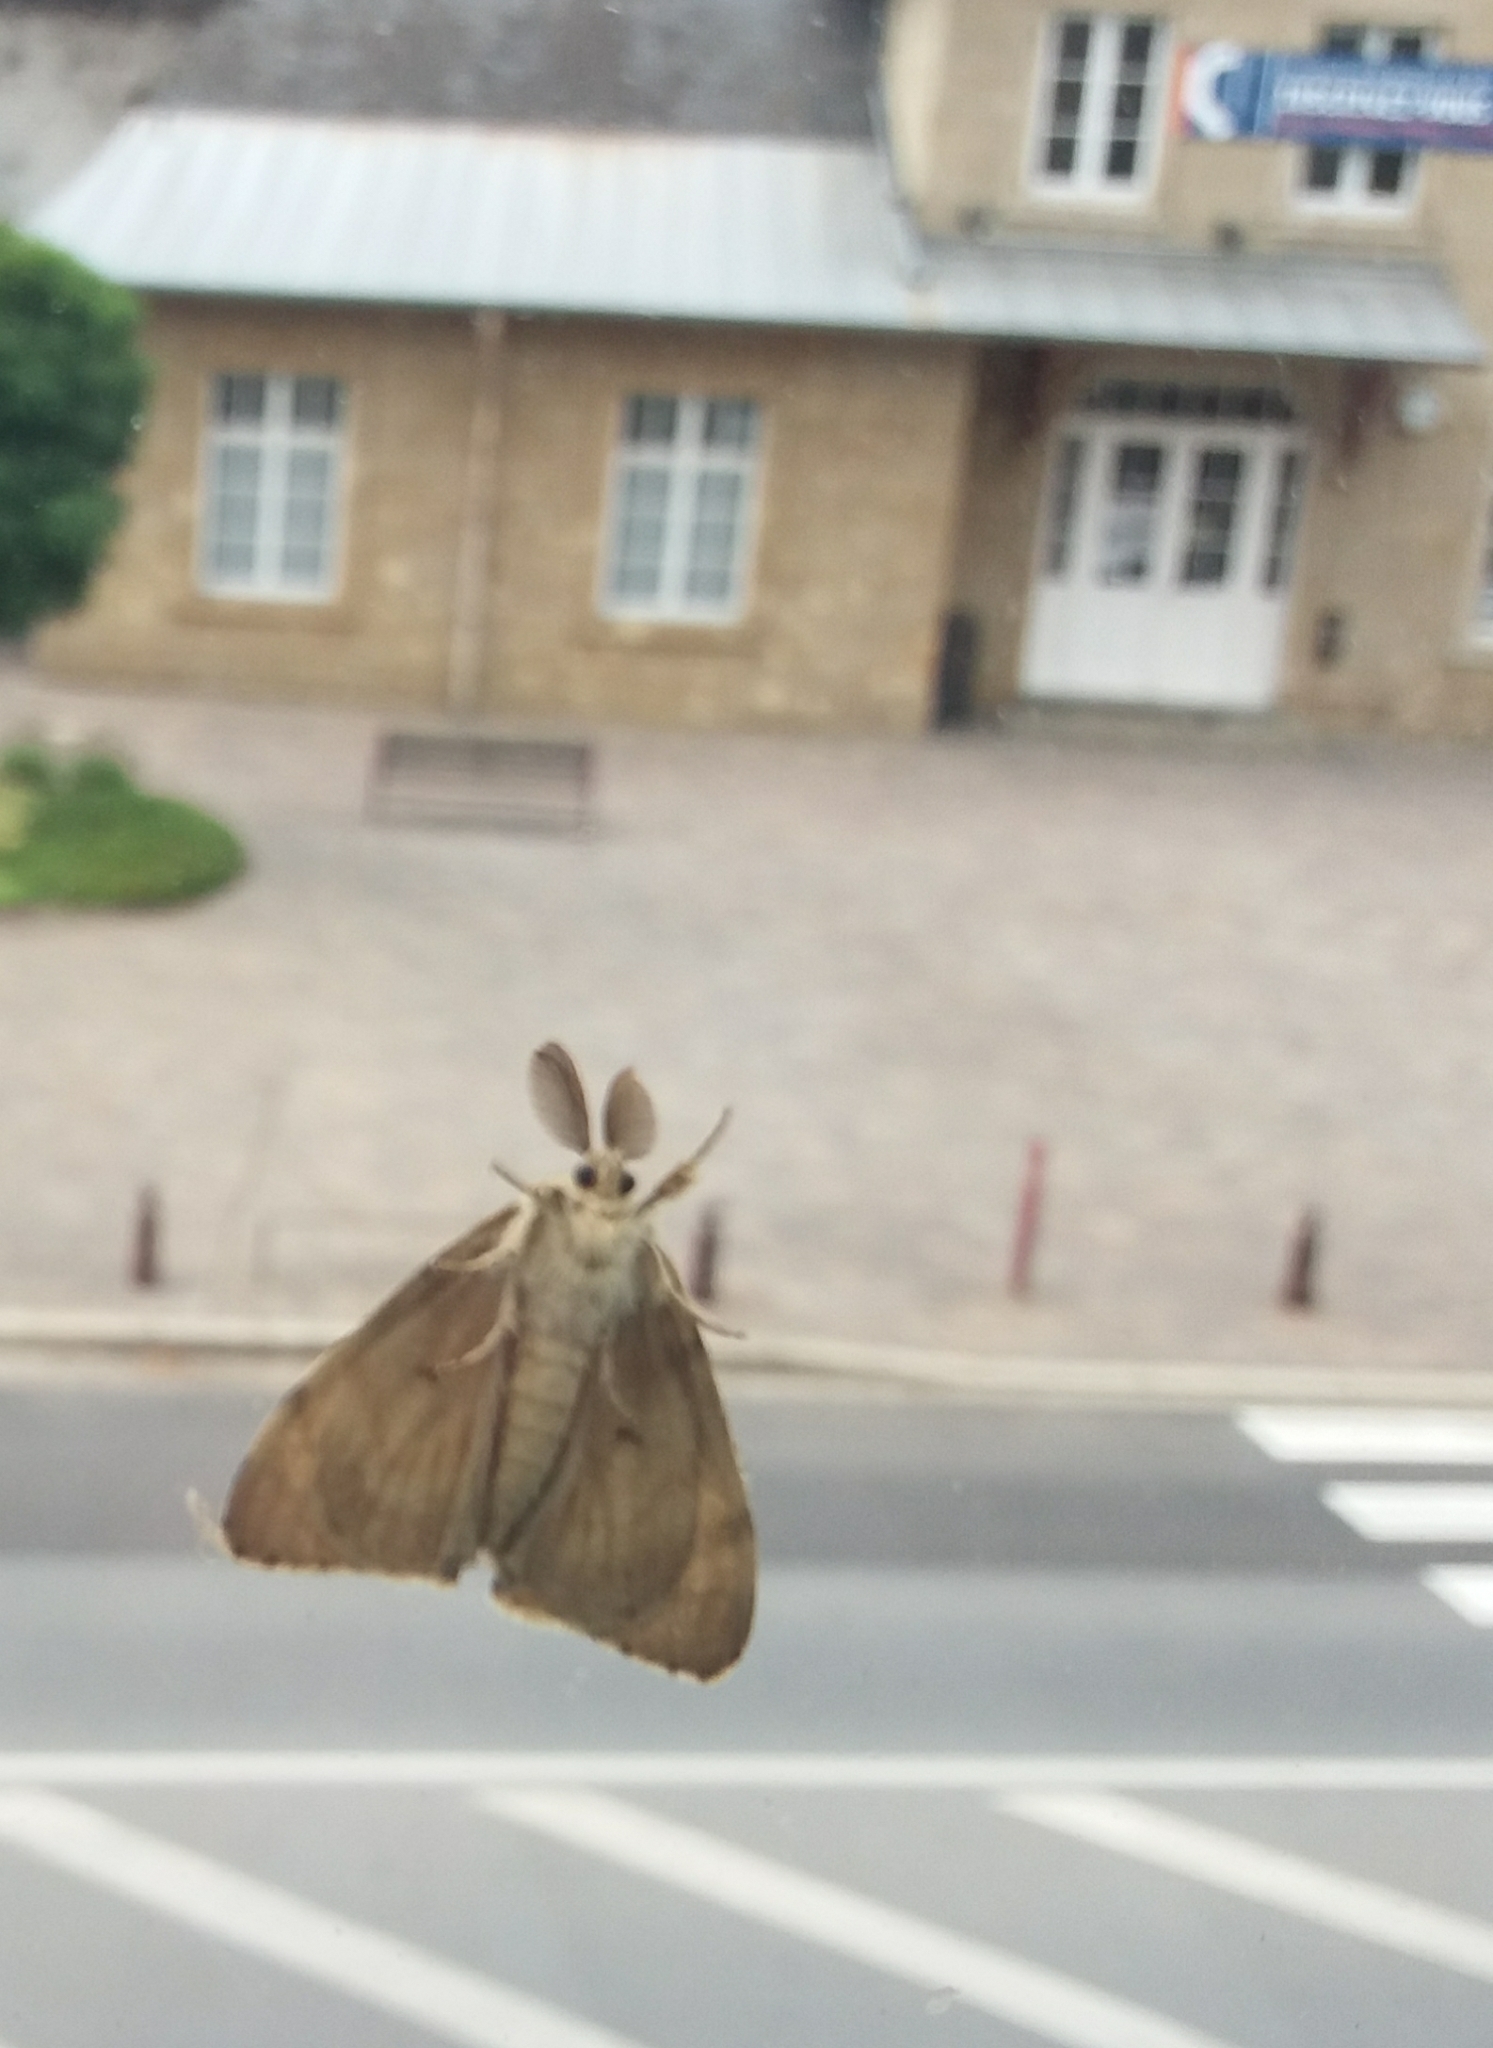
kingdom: Animalia
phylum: Arthropoda
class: Insecta
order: Lepidoptera
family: Erebidae
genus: Lymantria
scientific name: Lymantria dispar
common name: Gypsy moth
